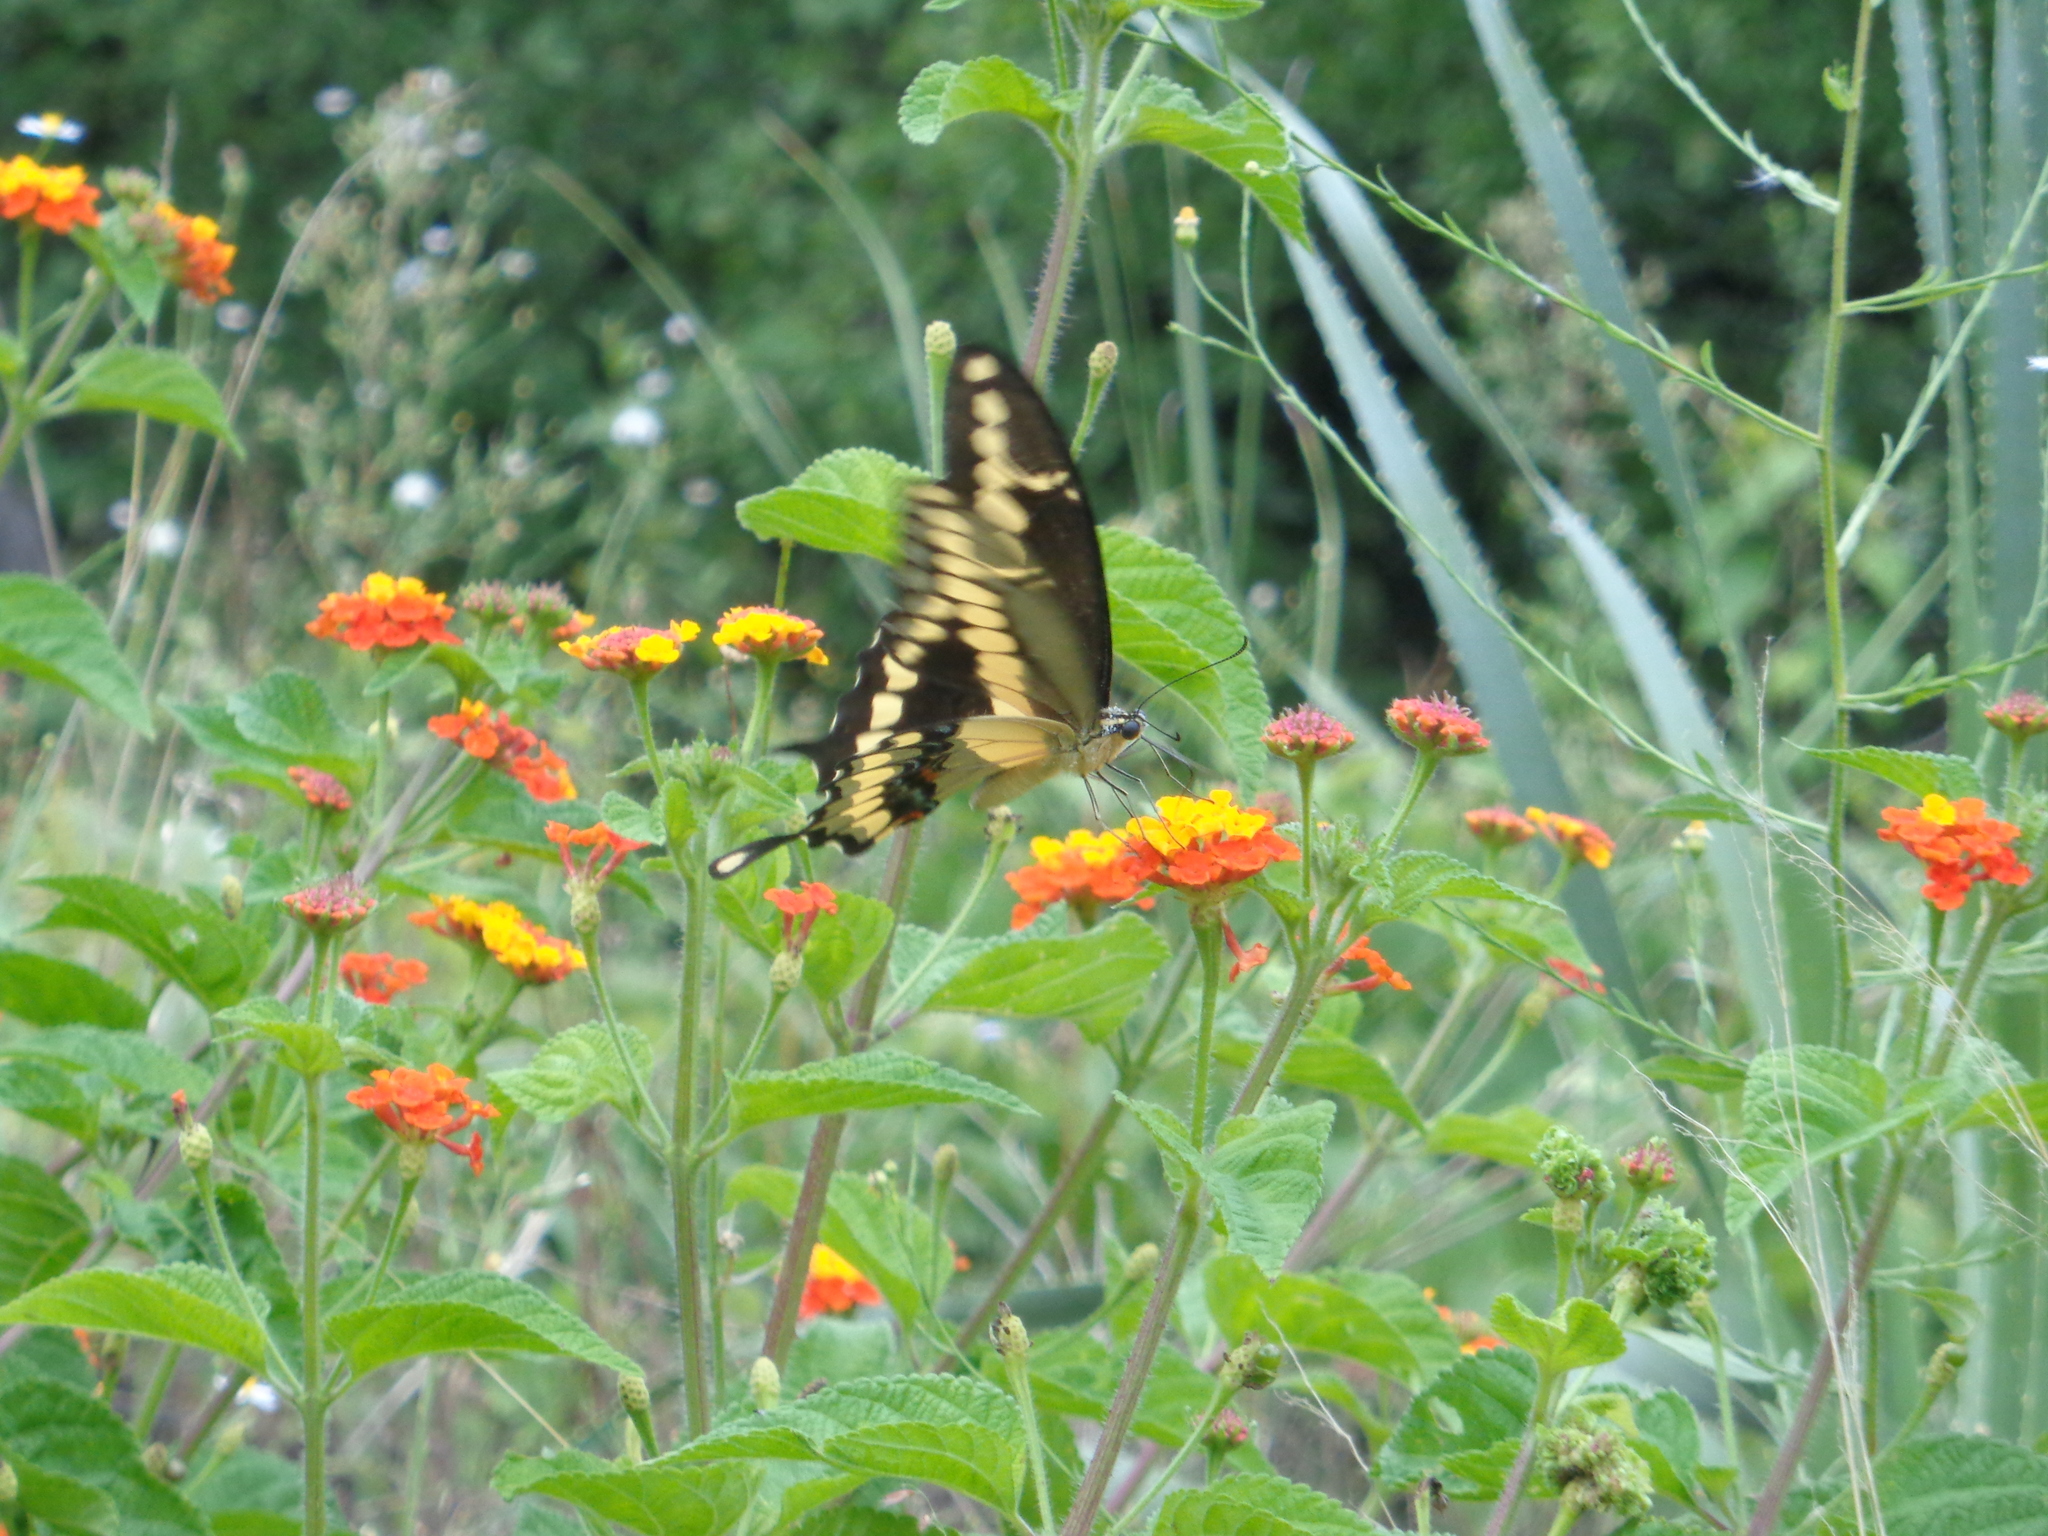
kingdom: Animalia
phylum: Arthropoda
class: Insecta
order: Lepidoptera
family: Papilionidae
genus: Papilio
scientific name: Papilio rumiko
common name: Western giant swallowtail
